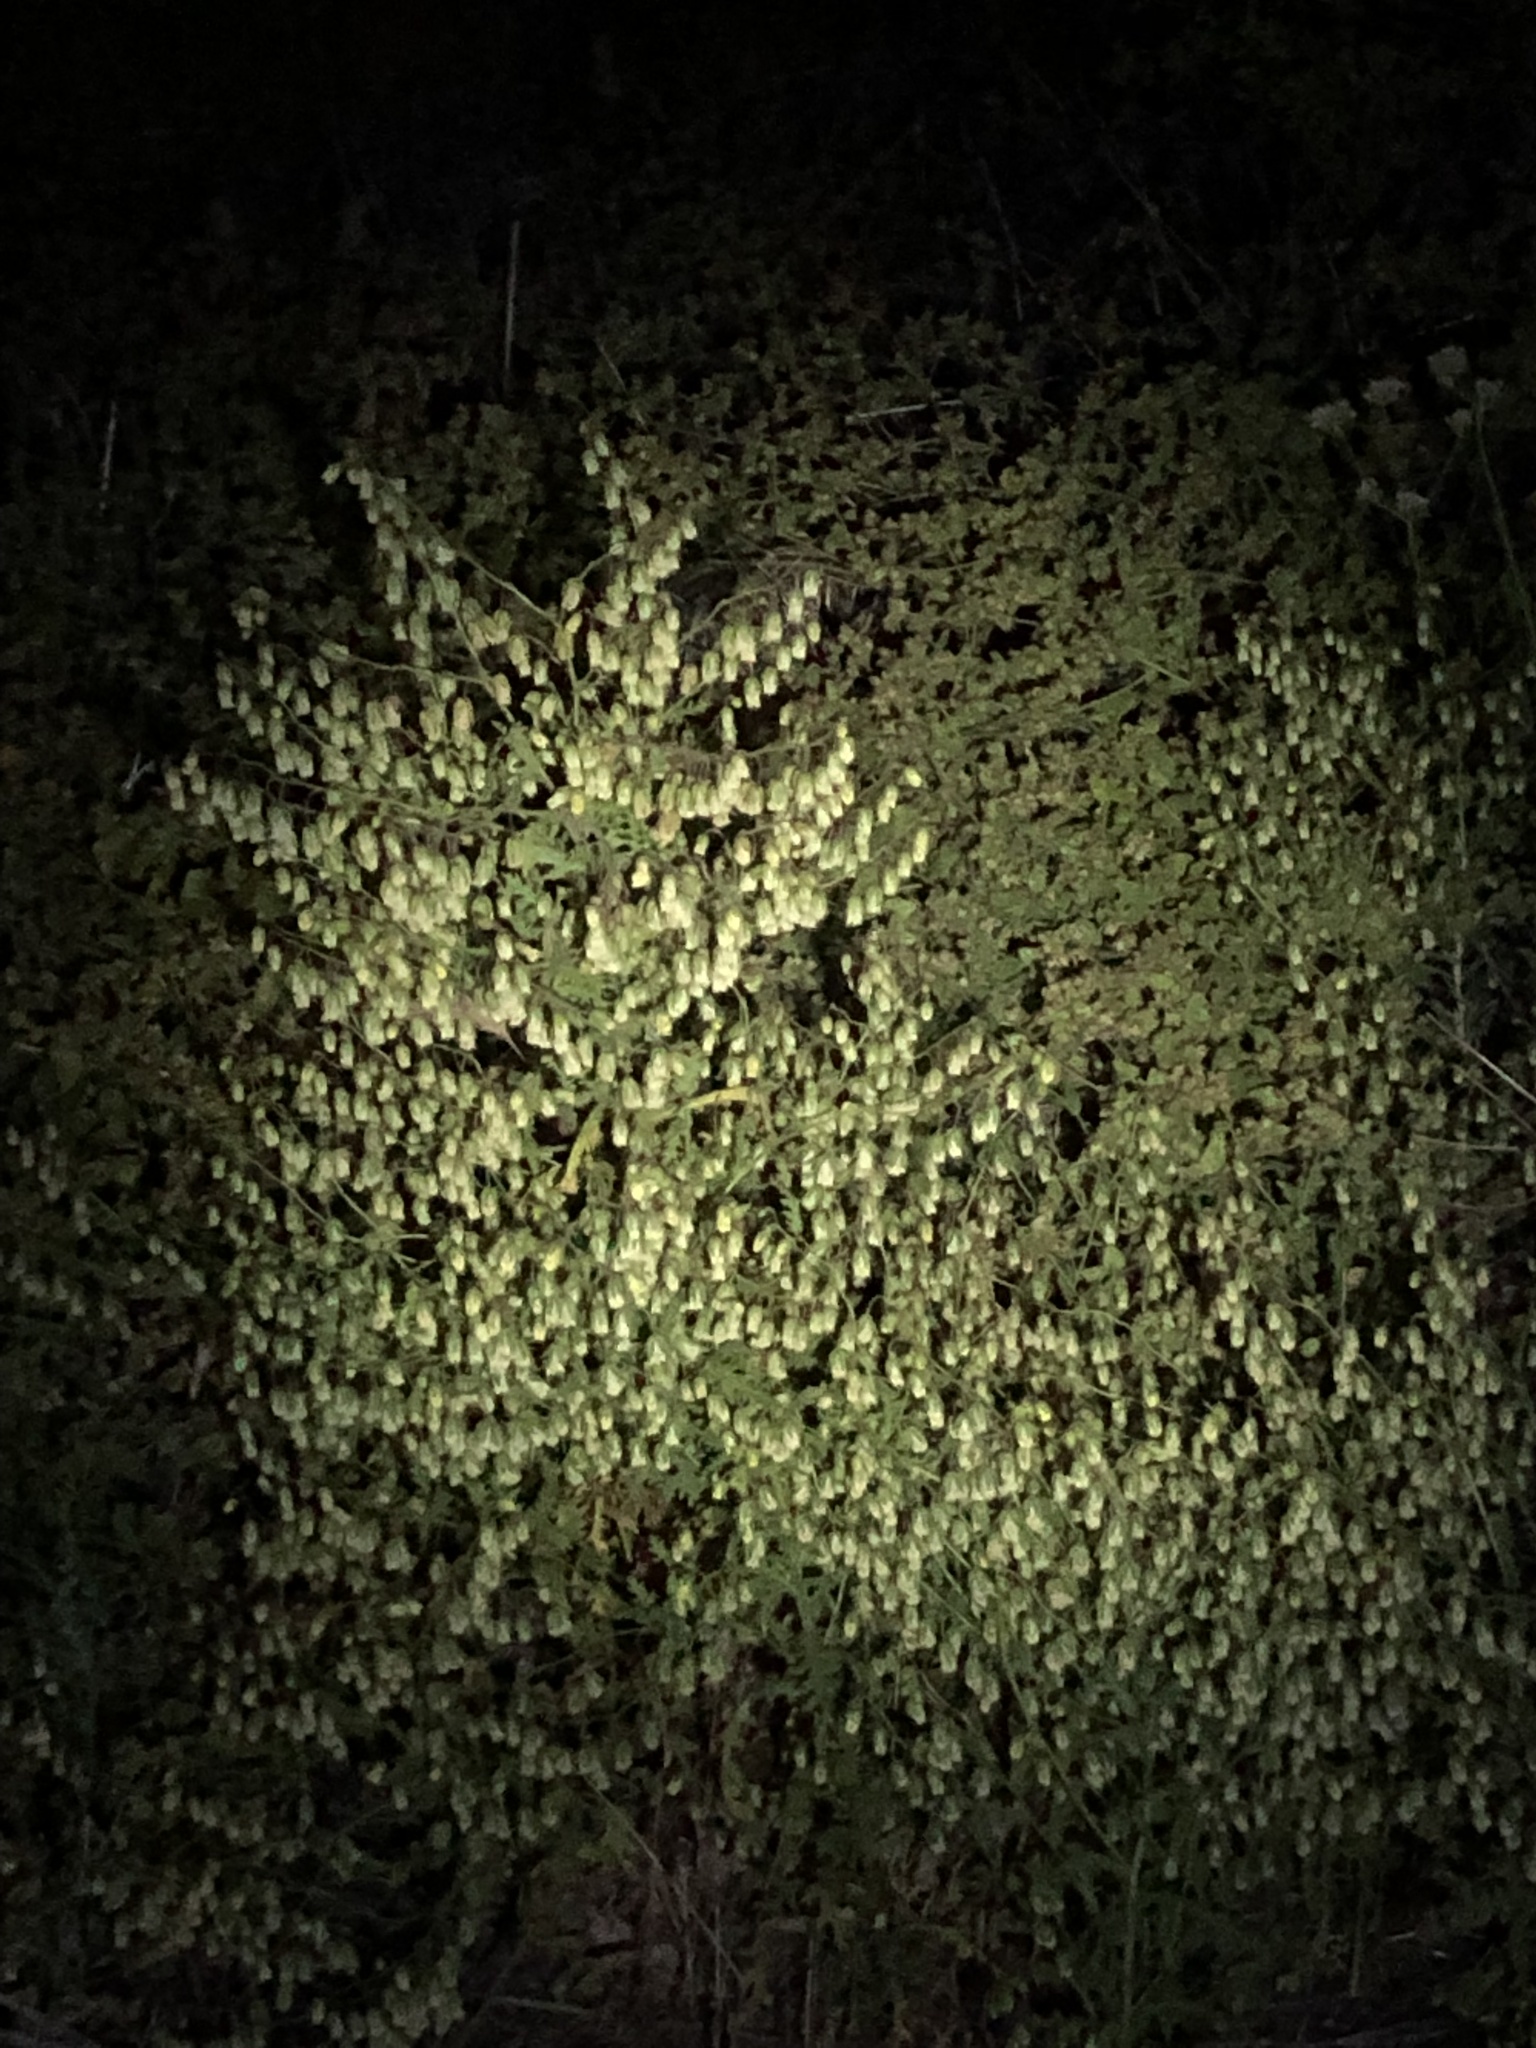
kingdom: Plantae
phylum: Tracheophyta
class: Magnoliopsida
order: Boraginales
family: Hydrophyllaceae
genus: Emmenanthe
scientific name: Emmenanthe penduliflora
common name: Whispering-bells
